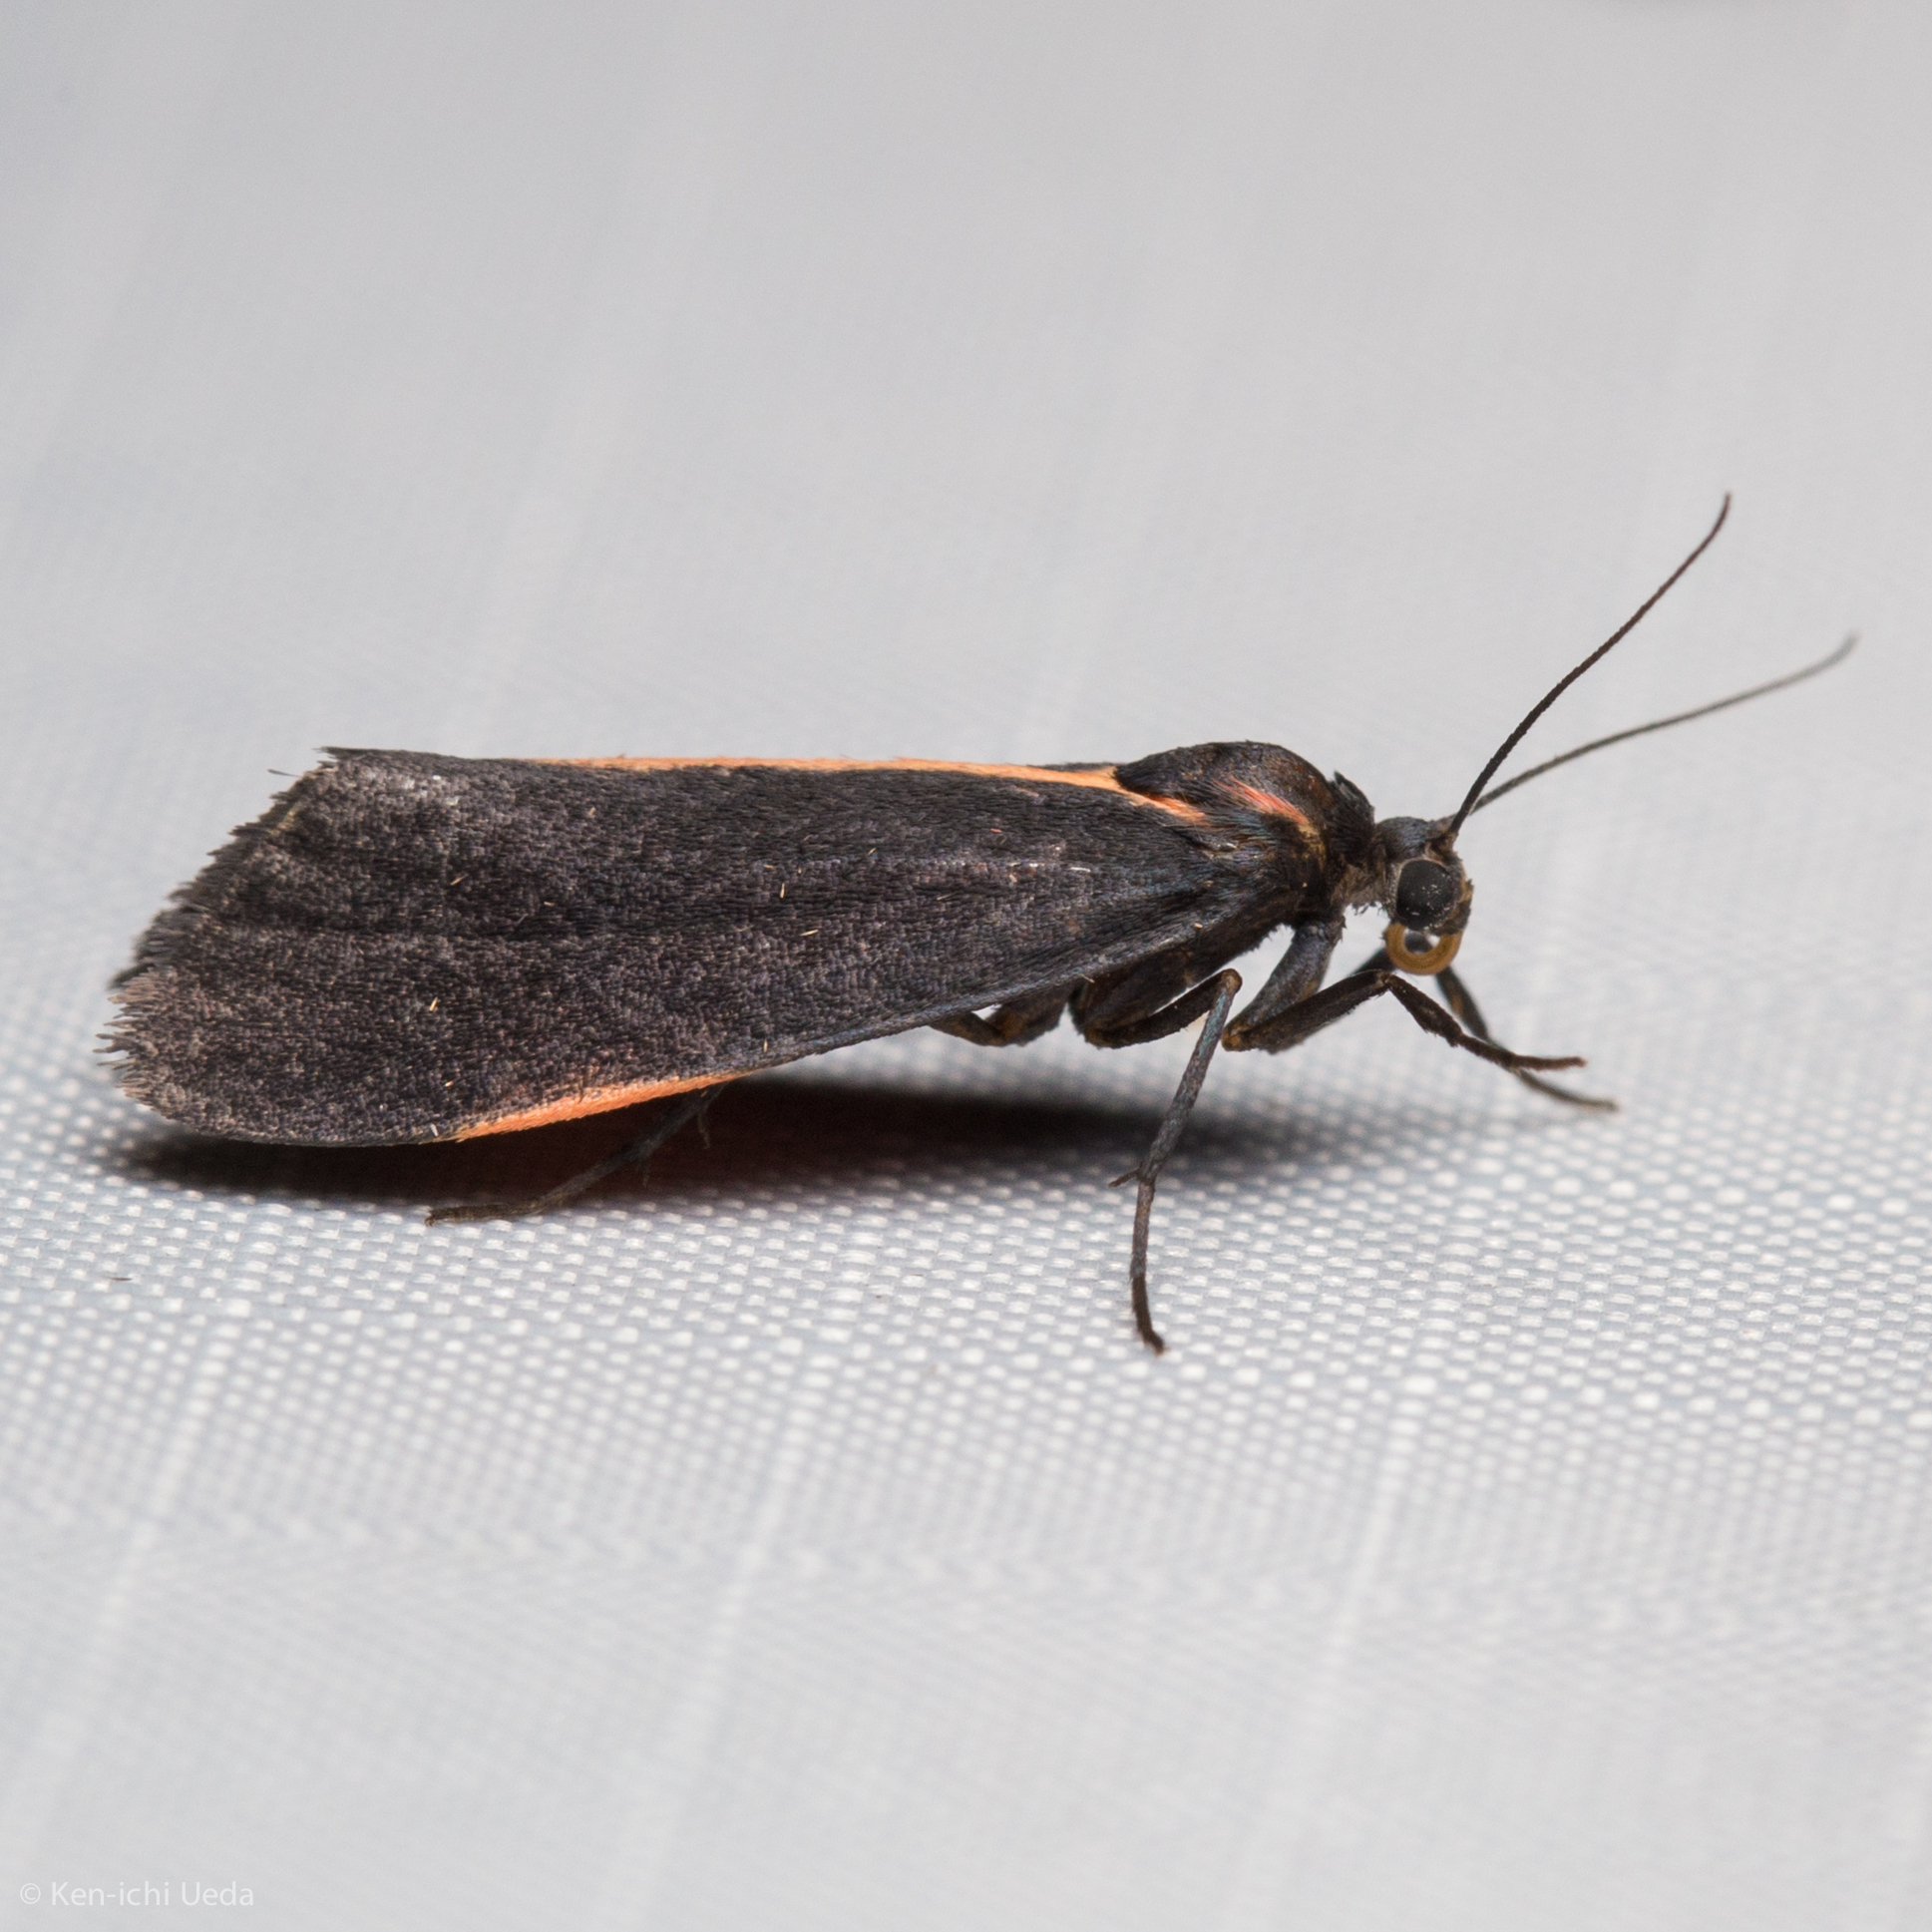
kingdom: Animalia
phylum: Arthropoda
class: Insecta
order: Lepidoptera
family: Erebidae
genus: Cisthene
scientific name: Cisthene juanita
